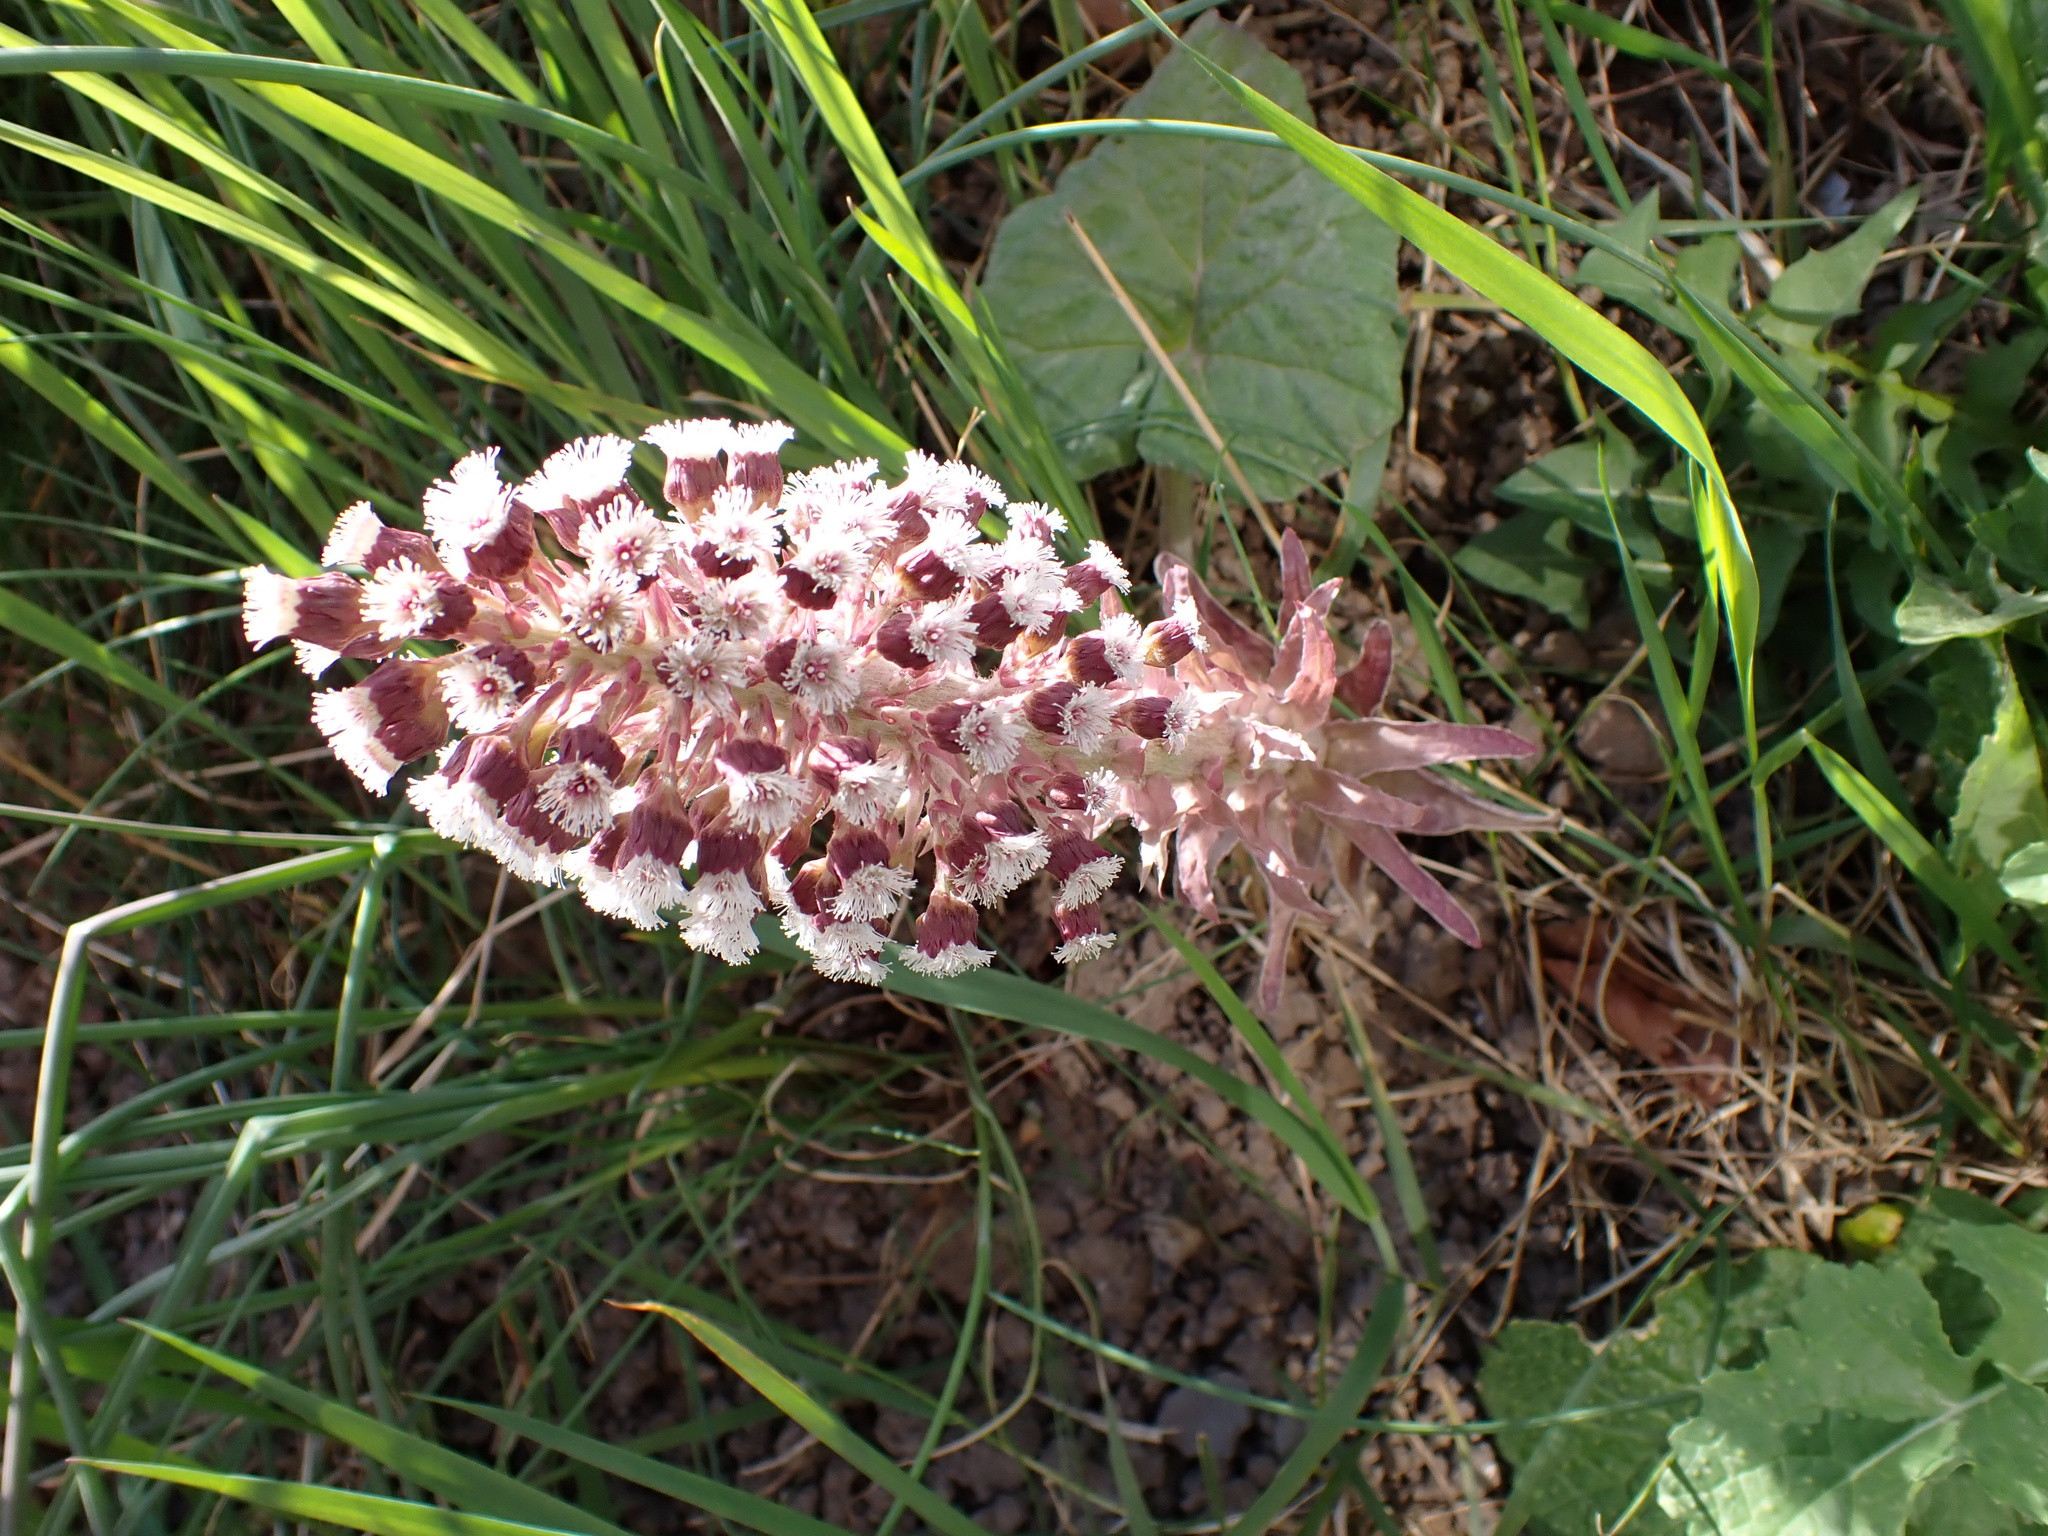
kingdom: Plantae
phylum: Tracheophyta
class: Magnoliopsida
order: Asterales
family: Asteraceae
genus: Petasites
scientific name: Petasites hybridus
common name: Butterbur
